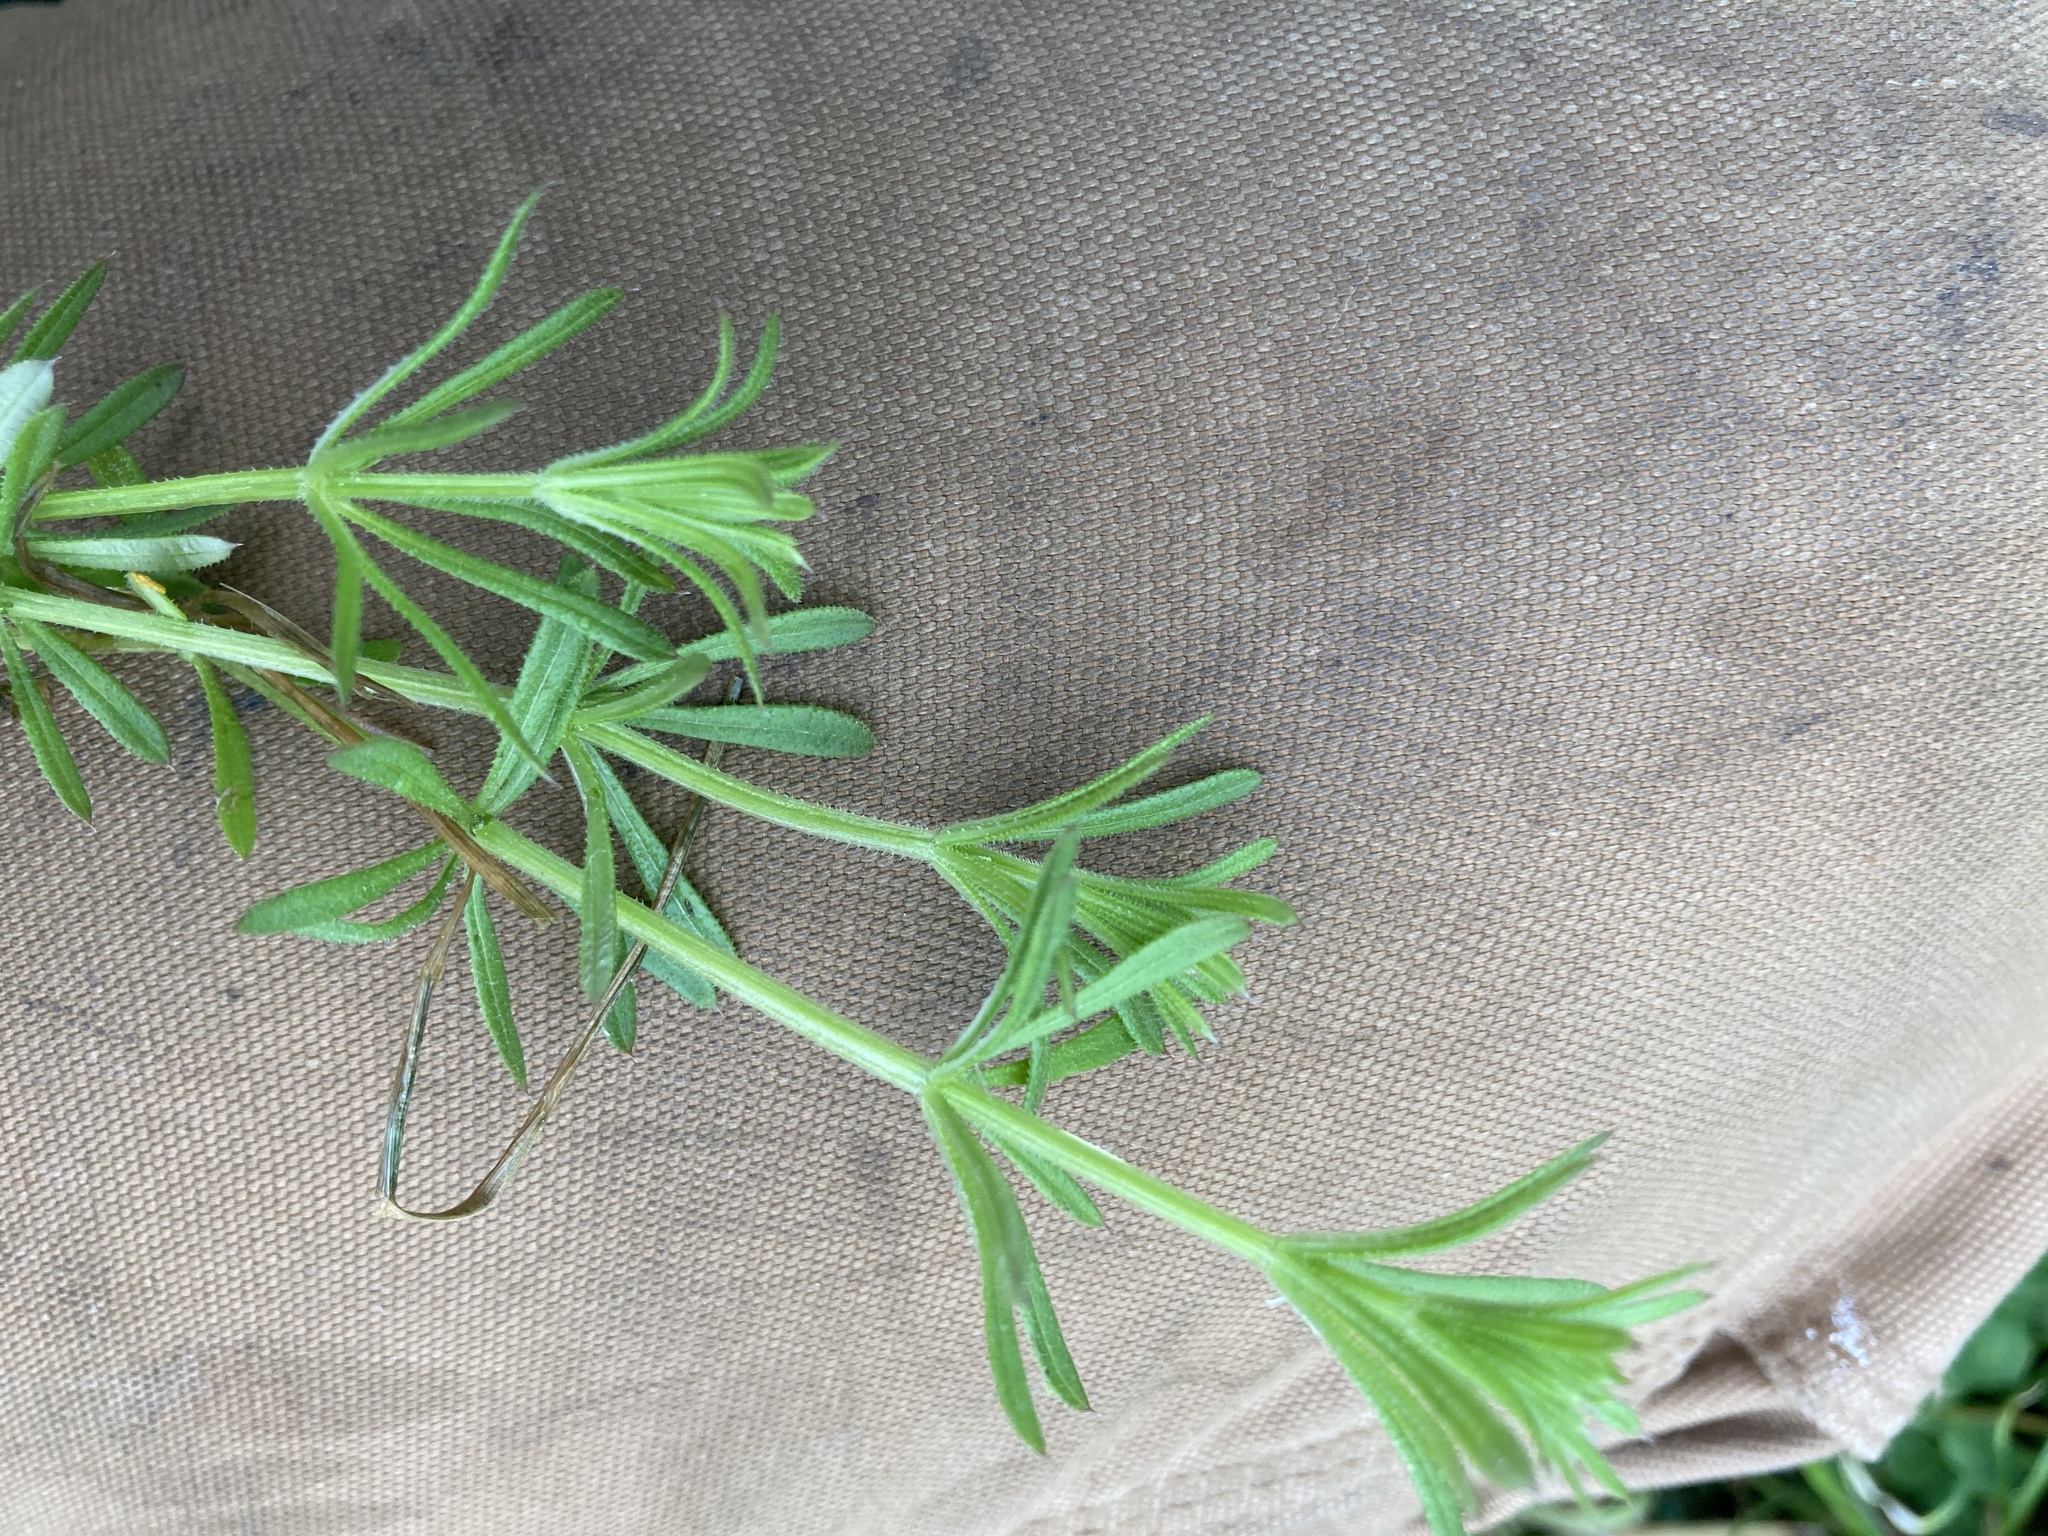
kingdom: Plantae
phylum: Tracheophyta
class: Magnoliopsida
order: Gentianales
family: Rubiaceae
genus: Galium
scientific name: Galium aparine
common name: Cleavers
